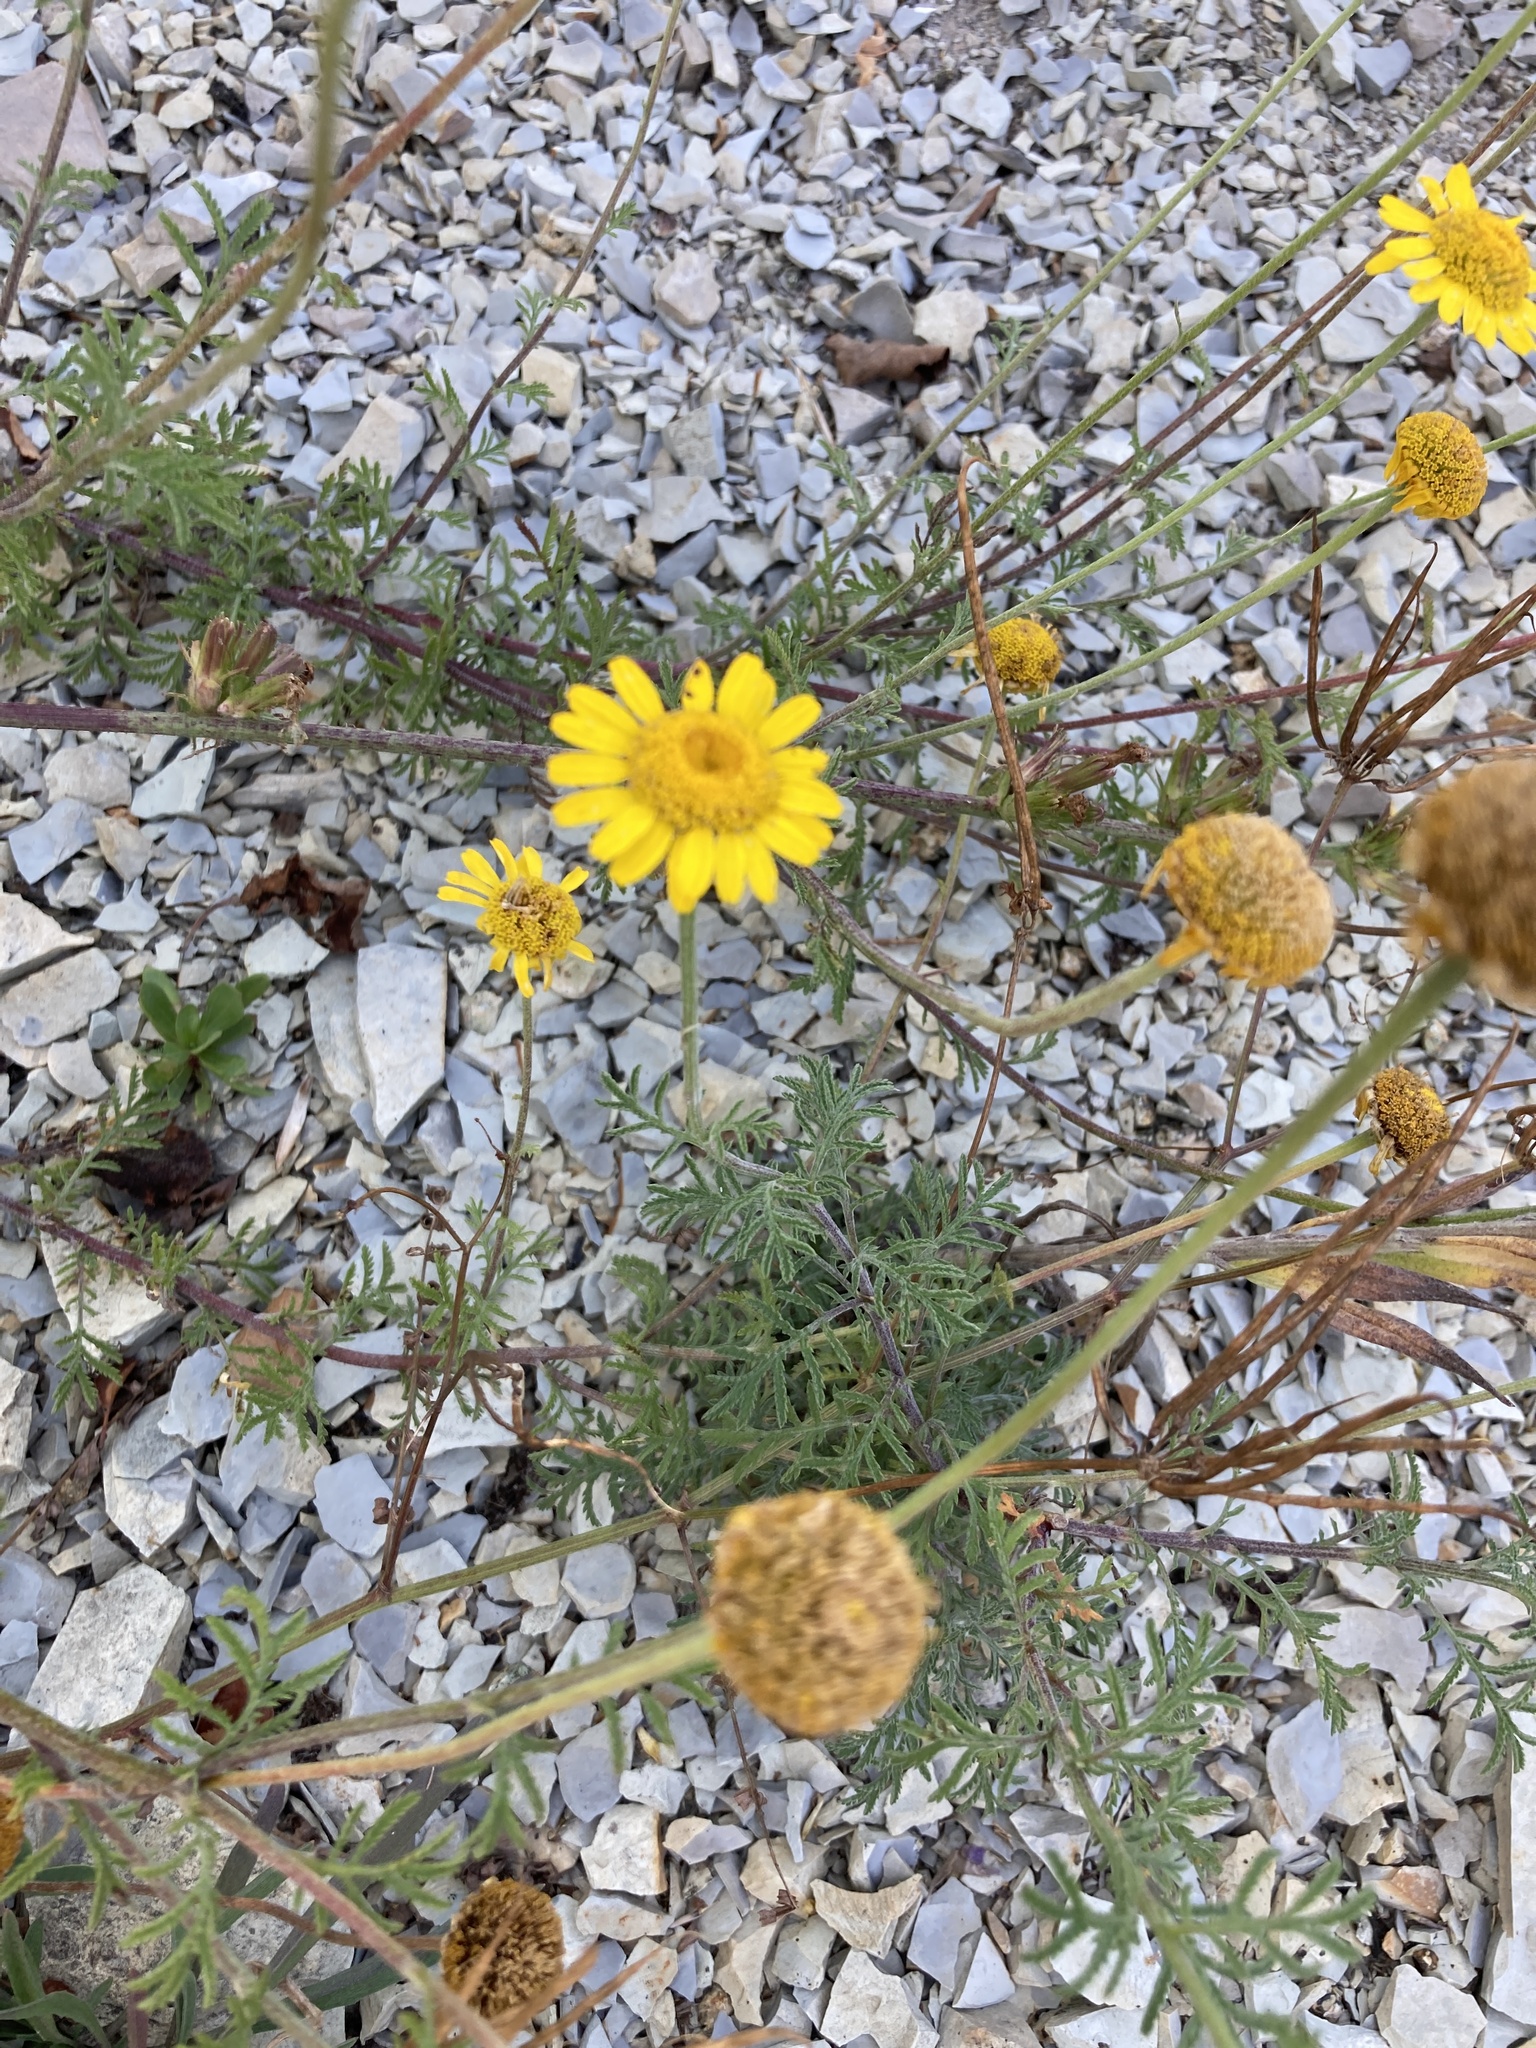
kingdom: Plantae
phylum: Tracheophyta
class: Magnoliopsida
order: Asterales
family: Asteraceae
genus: Cota
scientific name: Cota tinctoria
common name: Golden chamomile
